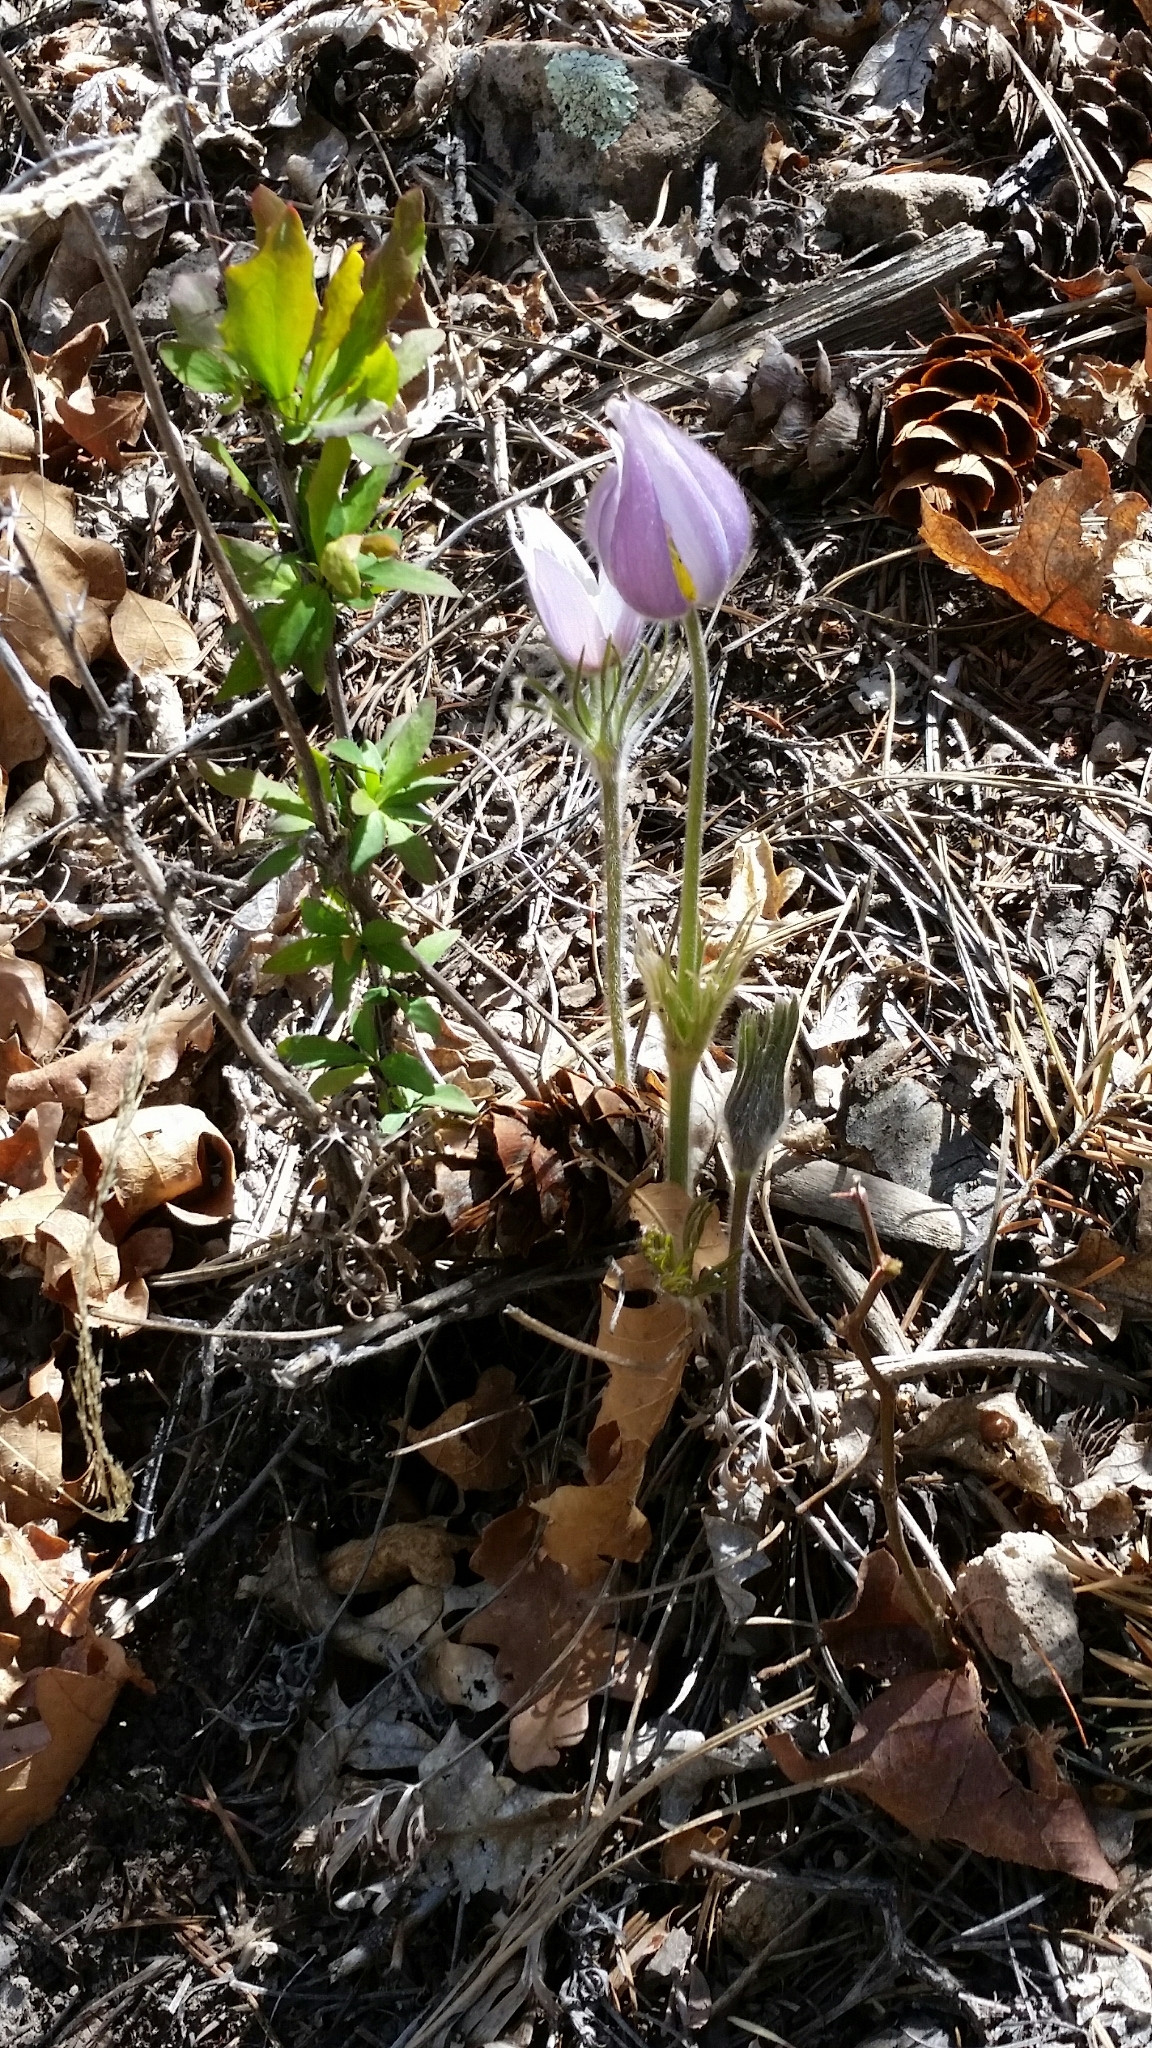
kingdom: Plantae
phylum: Tracheophyta
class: Magnoliopsida
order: Ranunculales
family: Ranunculaceae
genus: Pulsatilla
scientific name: Pulsatilla nuttalliana
